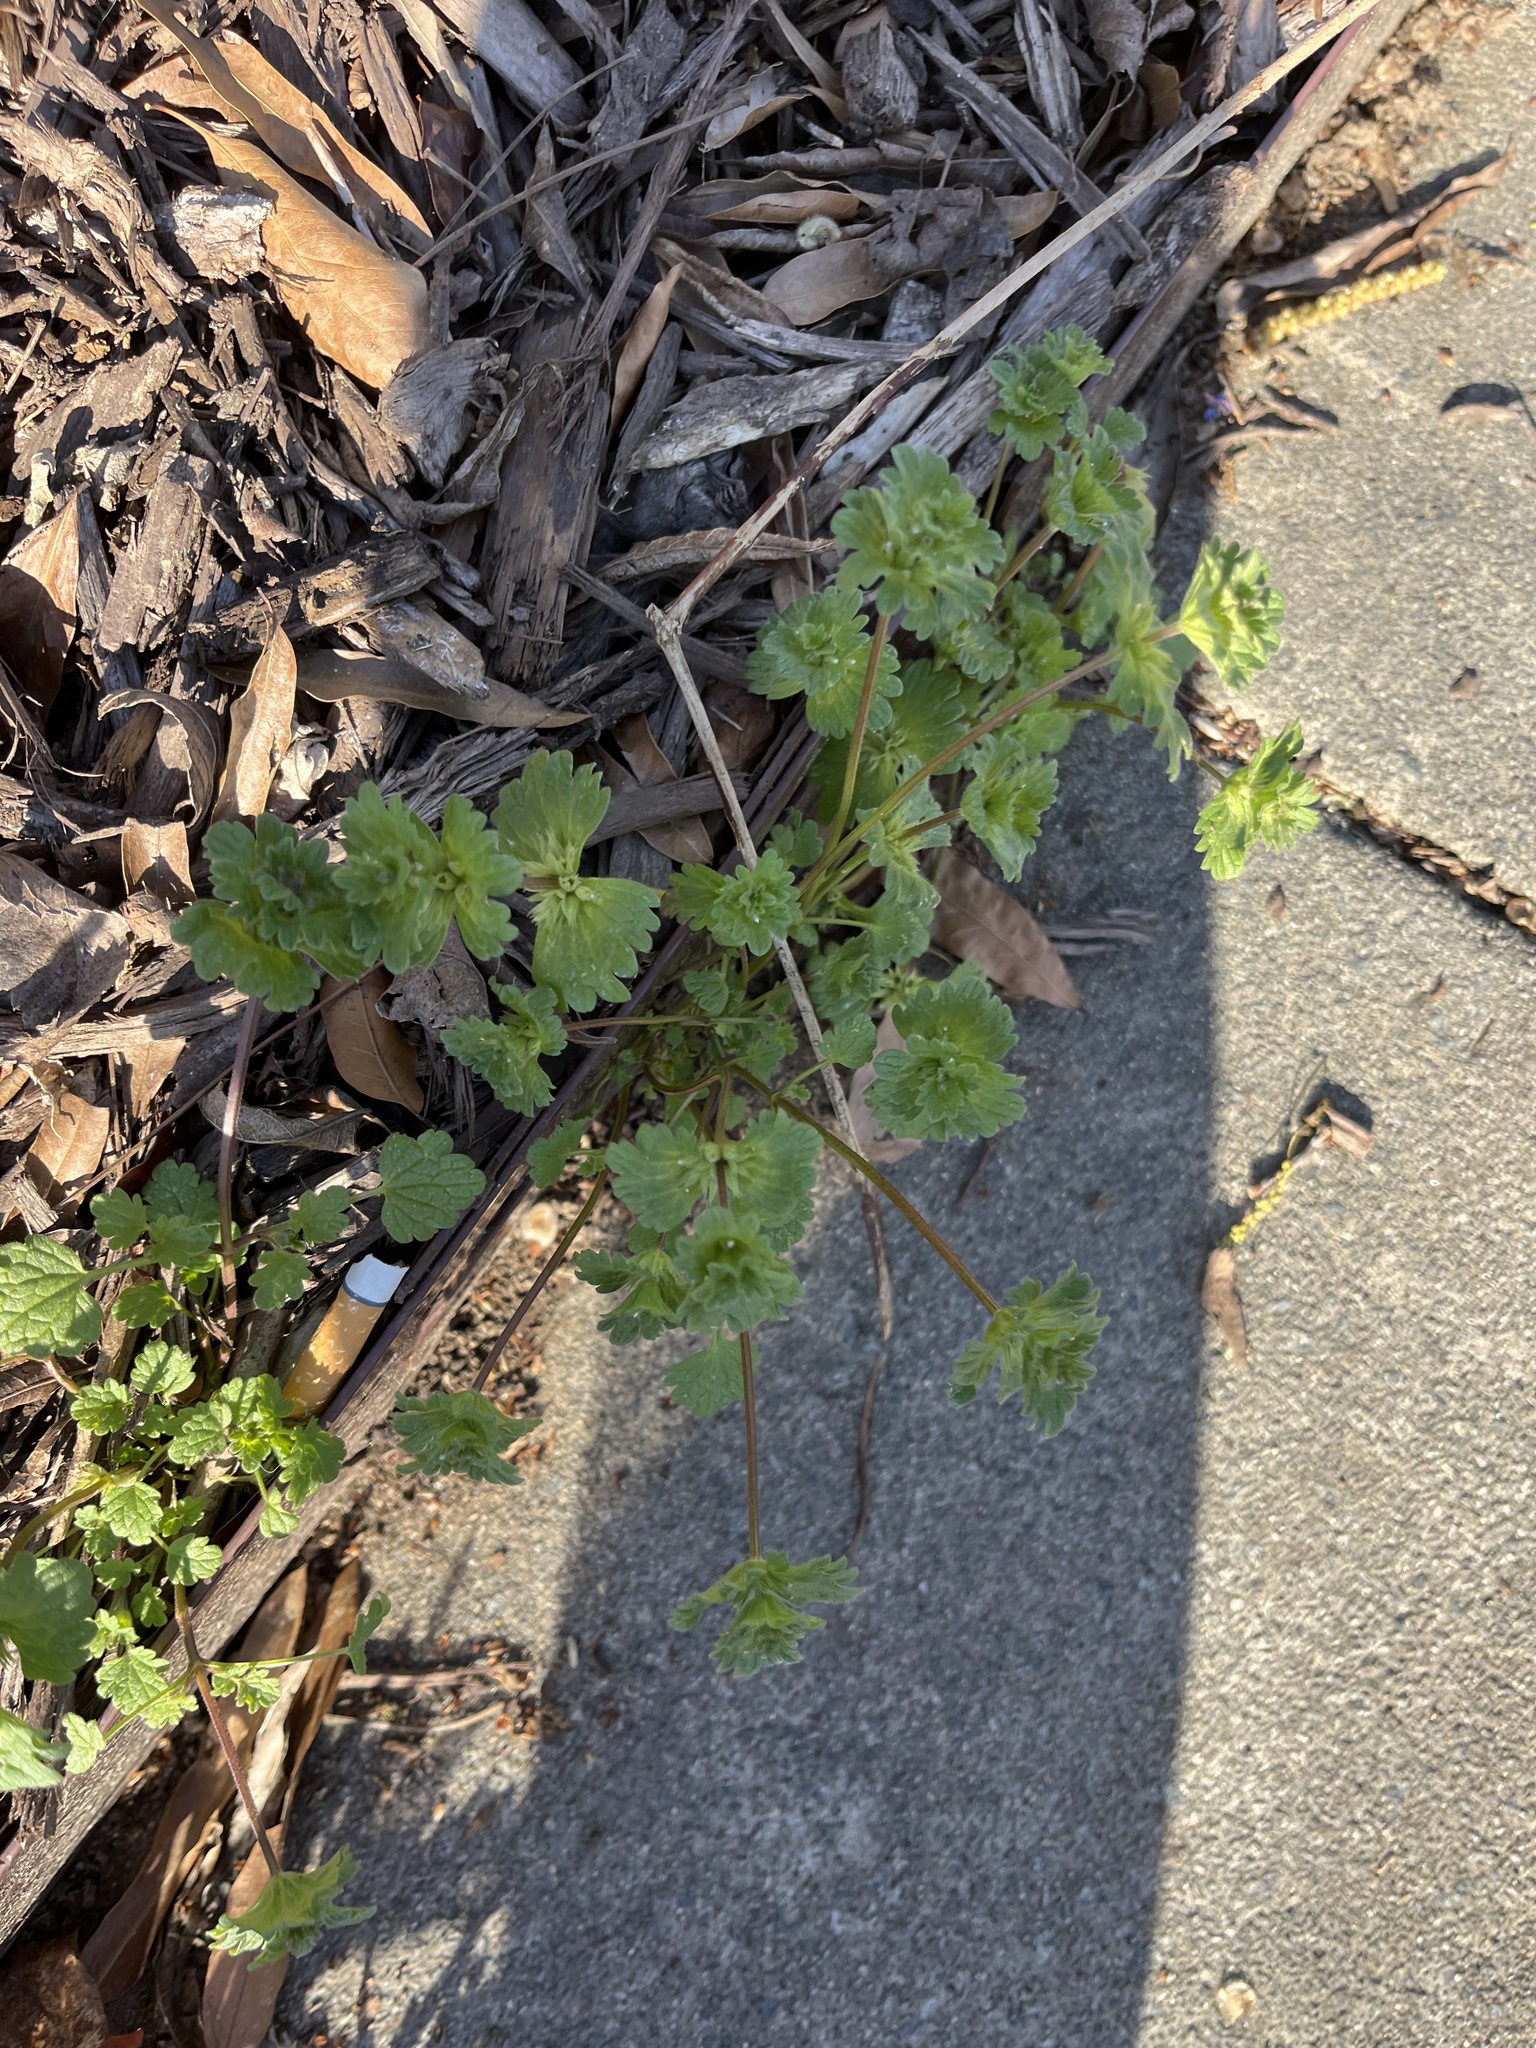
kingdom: Plantae
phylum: Tracheophyta
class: Magnoliopsida
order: Lamiales
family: Lamiaceae
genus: Lamium
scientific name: Lamium amplexicaule
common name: Henbit dead-nettle
